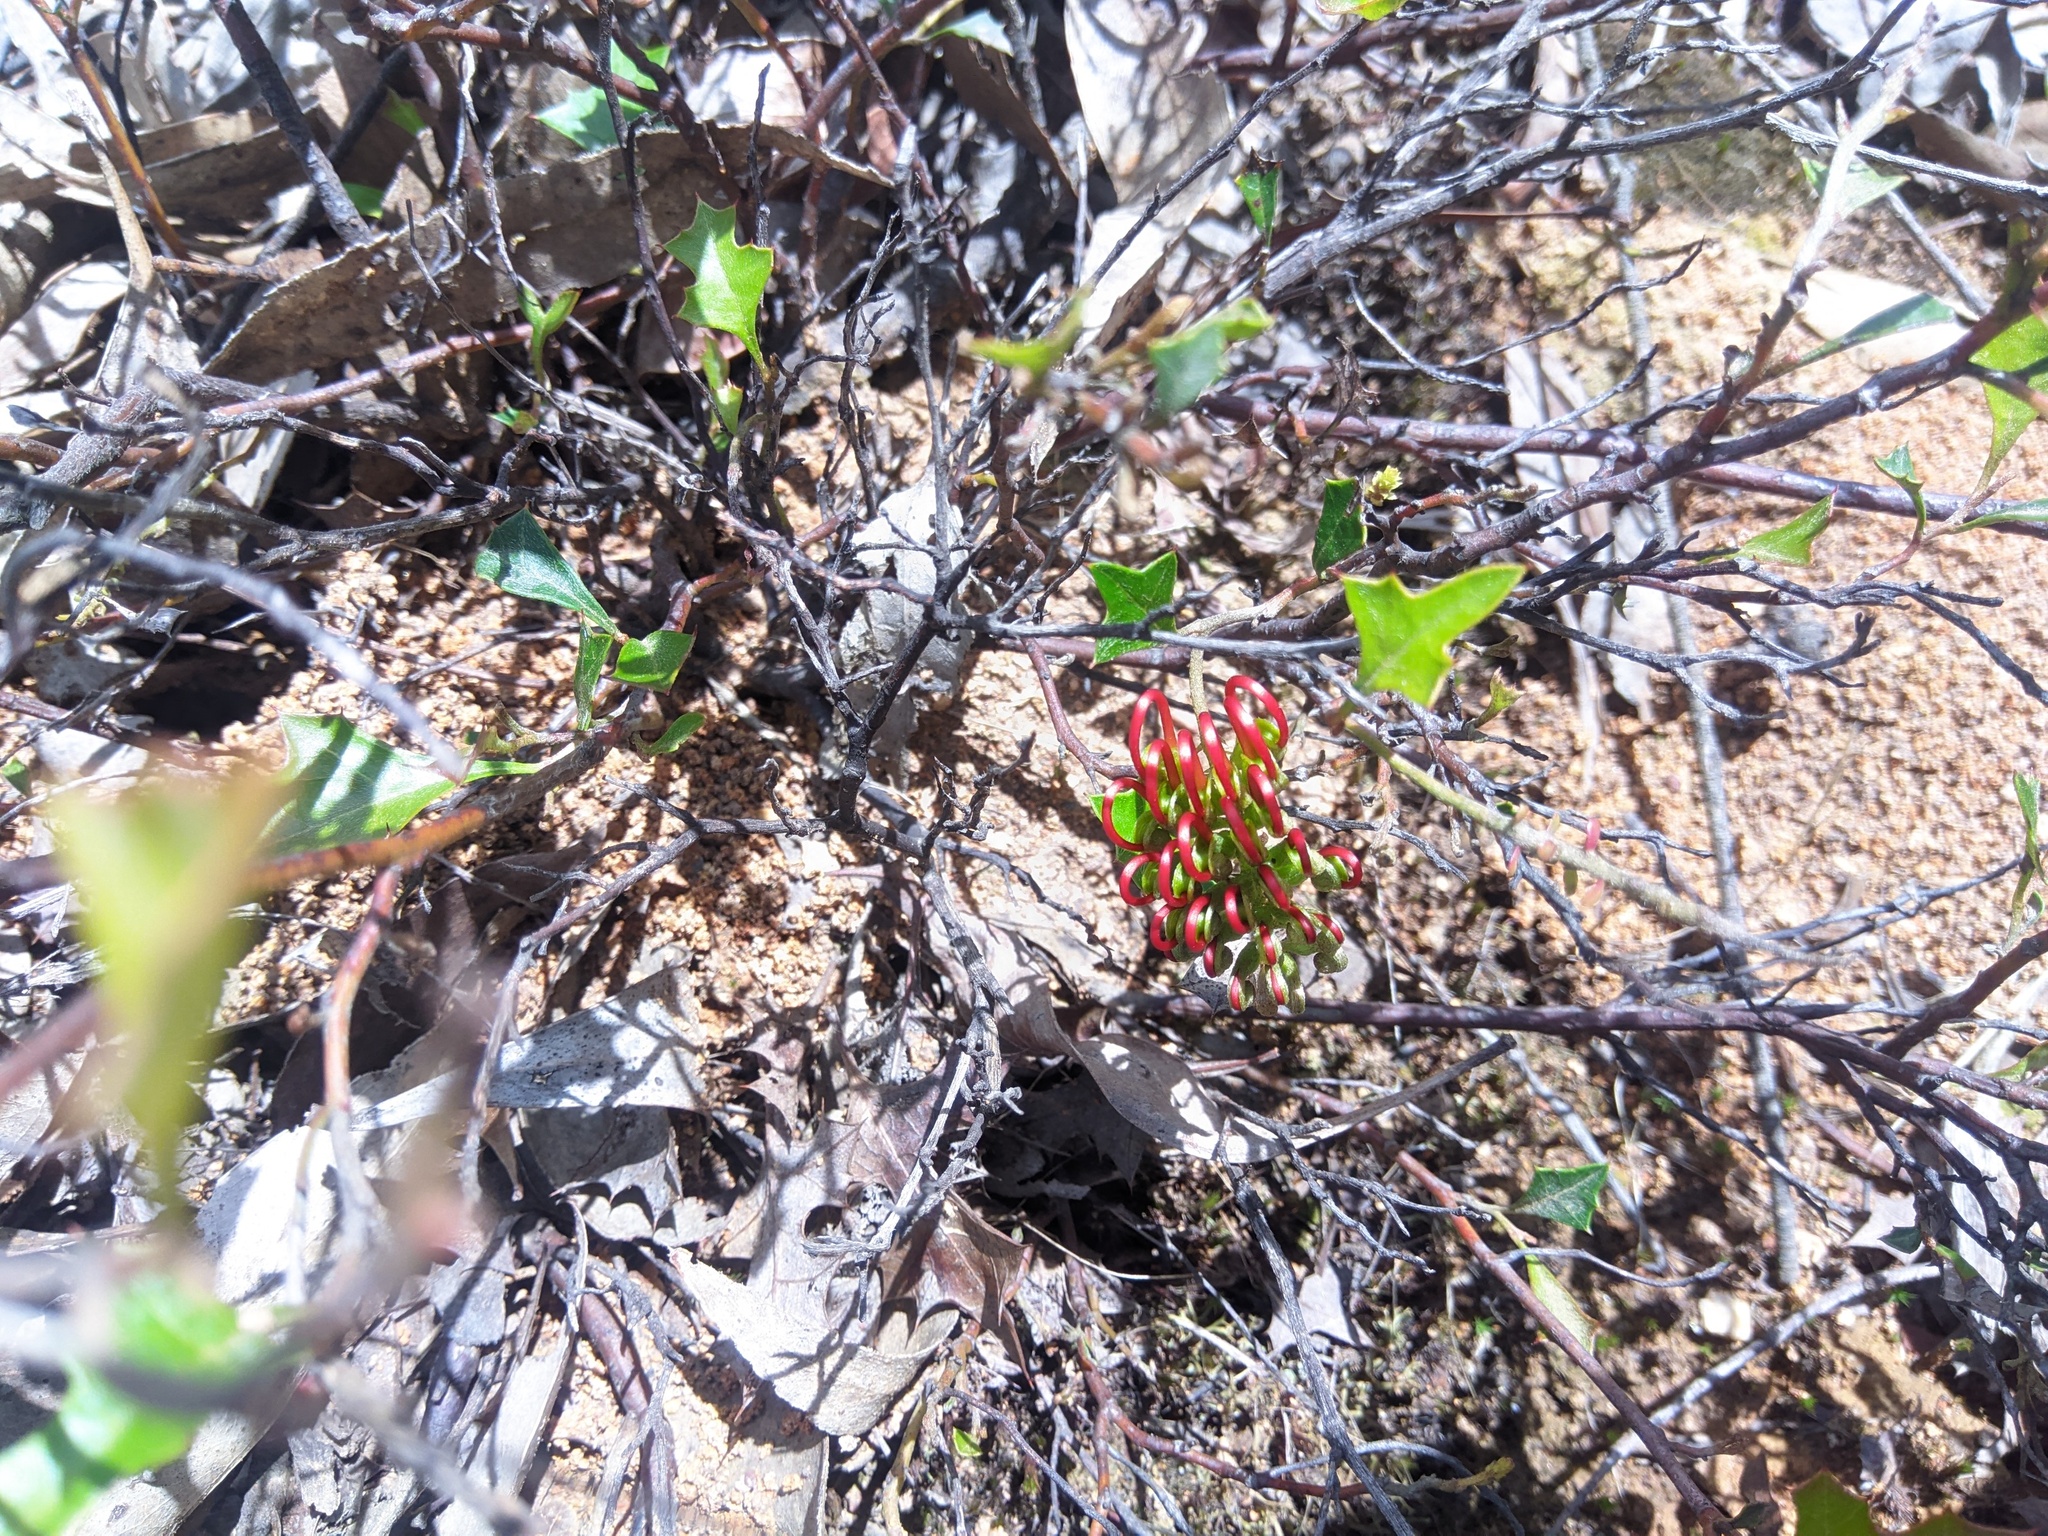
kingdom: Plantae
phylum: Tracheophyta
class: Magnoliopsida
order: Proteales
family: Proteaceae
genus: Grevillea
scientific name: Grevillea steiglitziana
